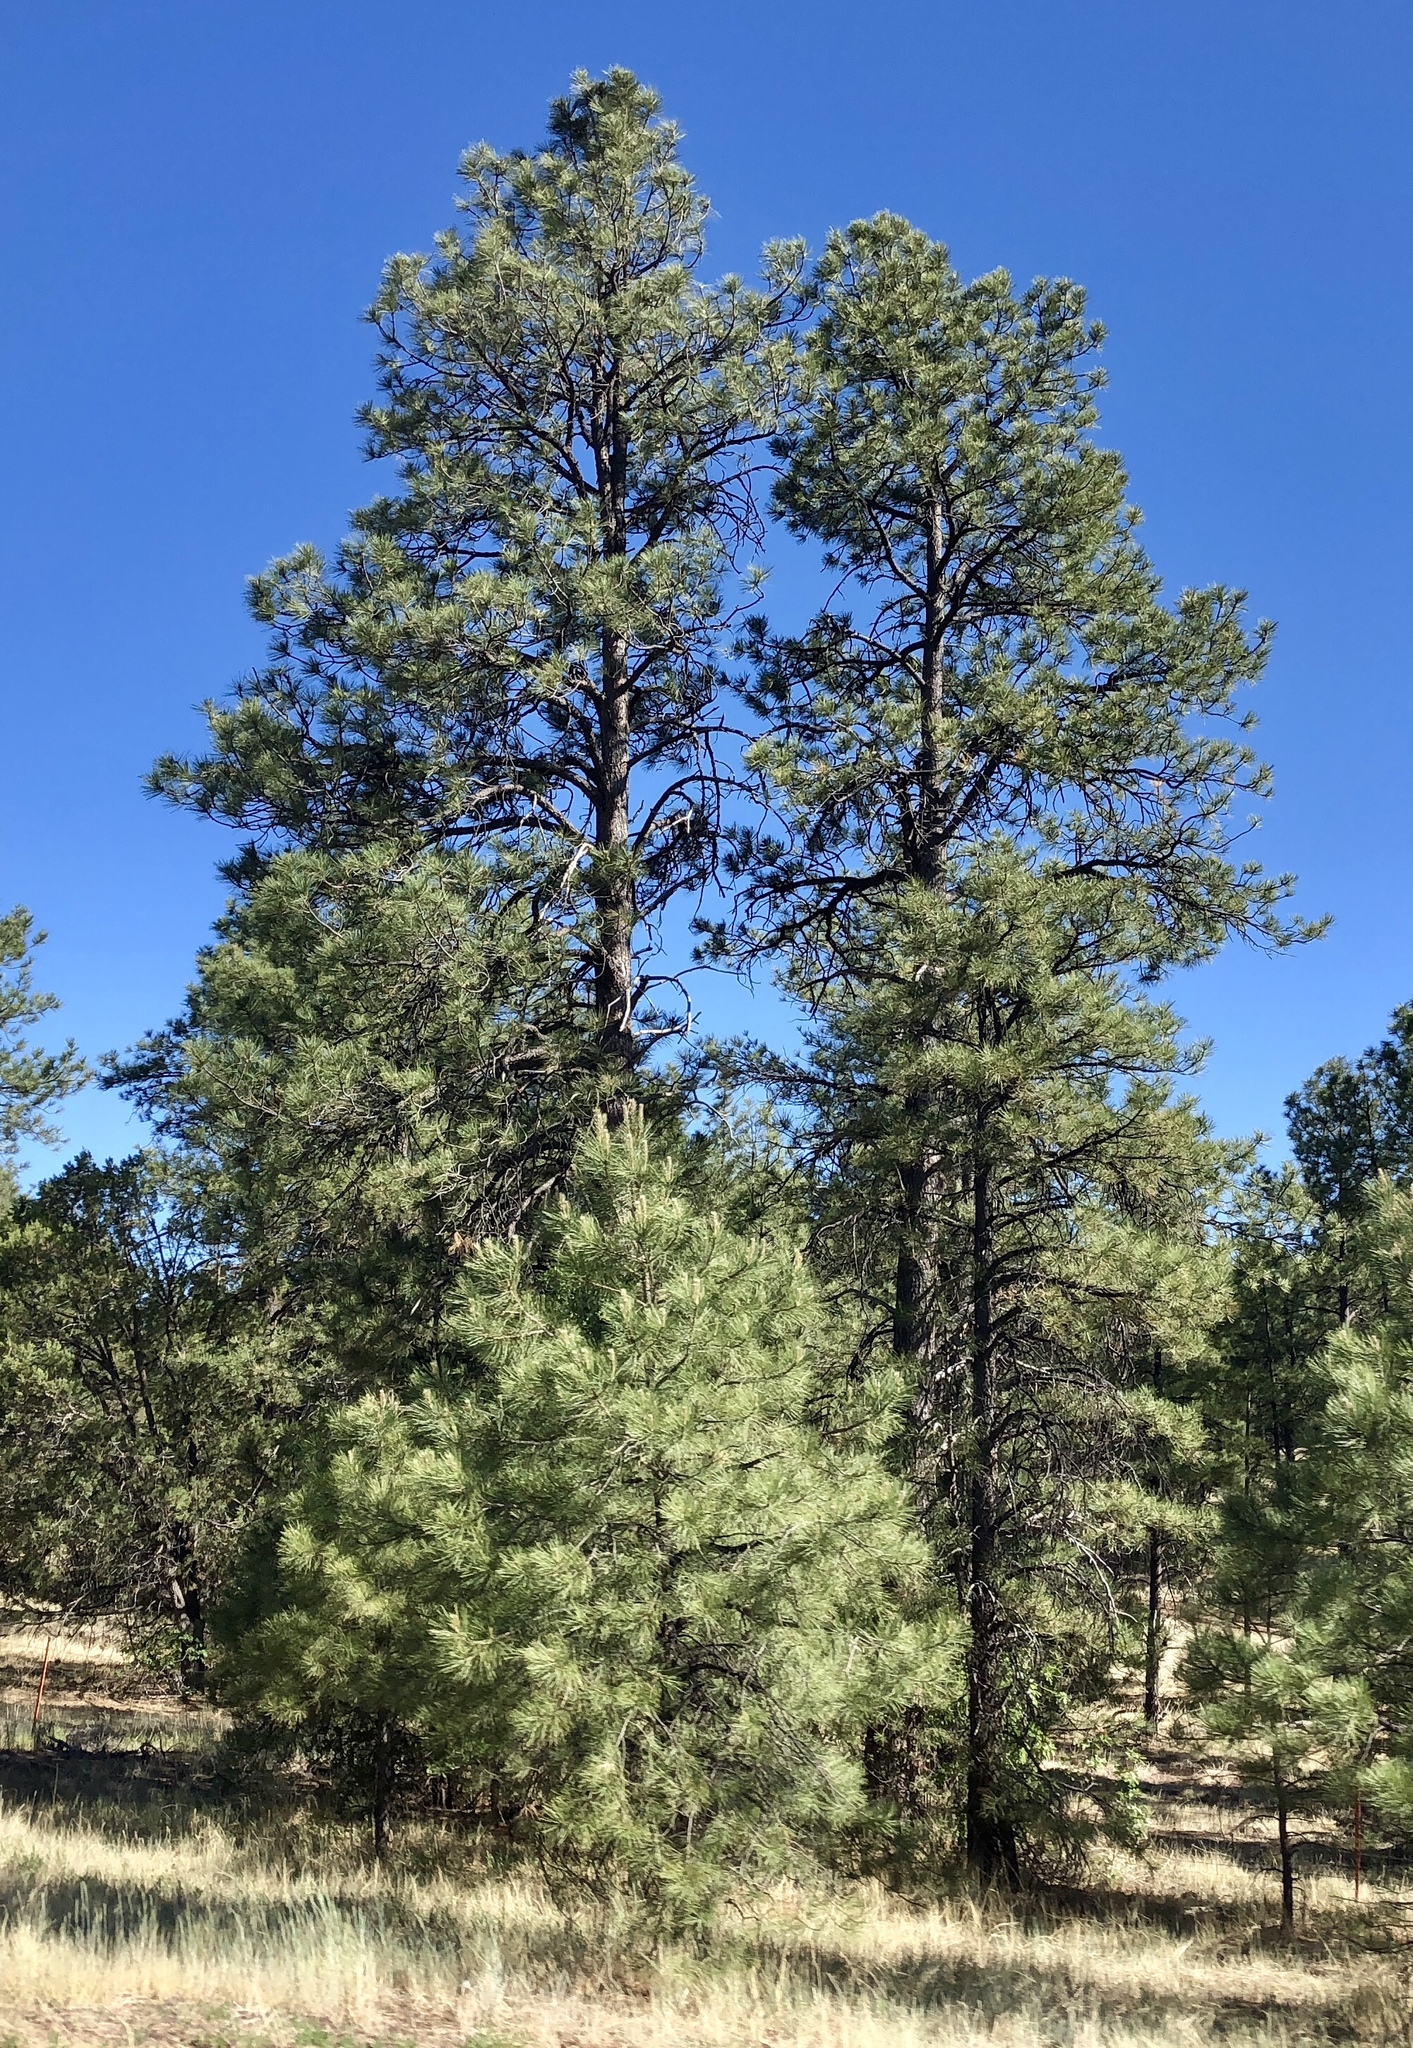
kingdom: Plantae
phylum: Tracheophyta
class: Pinopsida
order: Pinales
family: Pinaceae
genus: Pinus
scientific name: Pinus ponderosa
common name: Western yellow-pine
